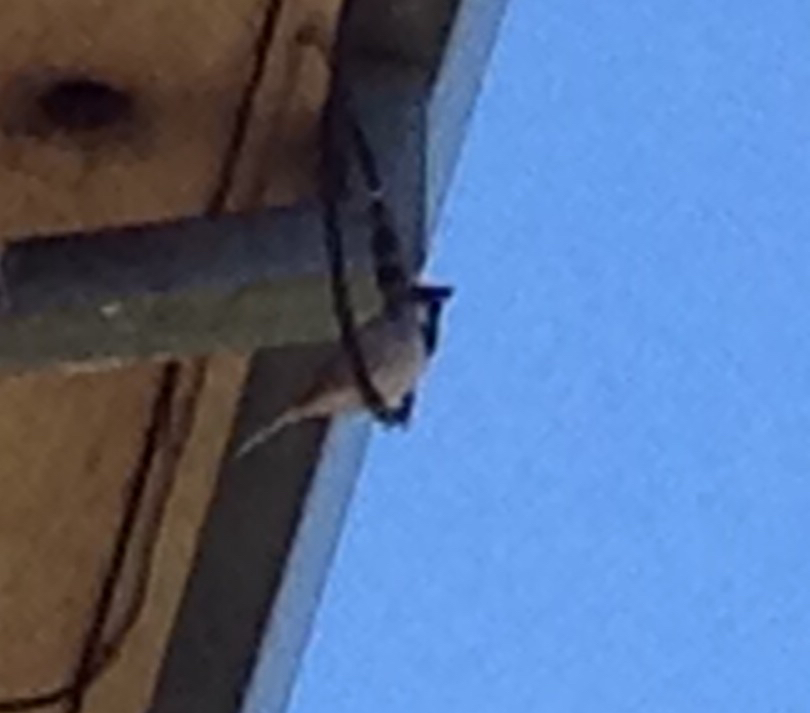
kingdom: Animalia
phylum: Chordata
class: Aves
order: Passeriformes
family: Passeridae
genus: Passer
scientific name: Passer domesticus
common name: House sparrow
